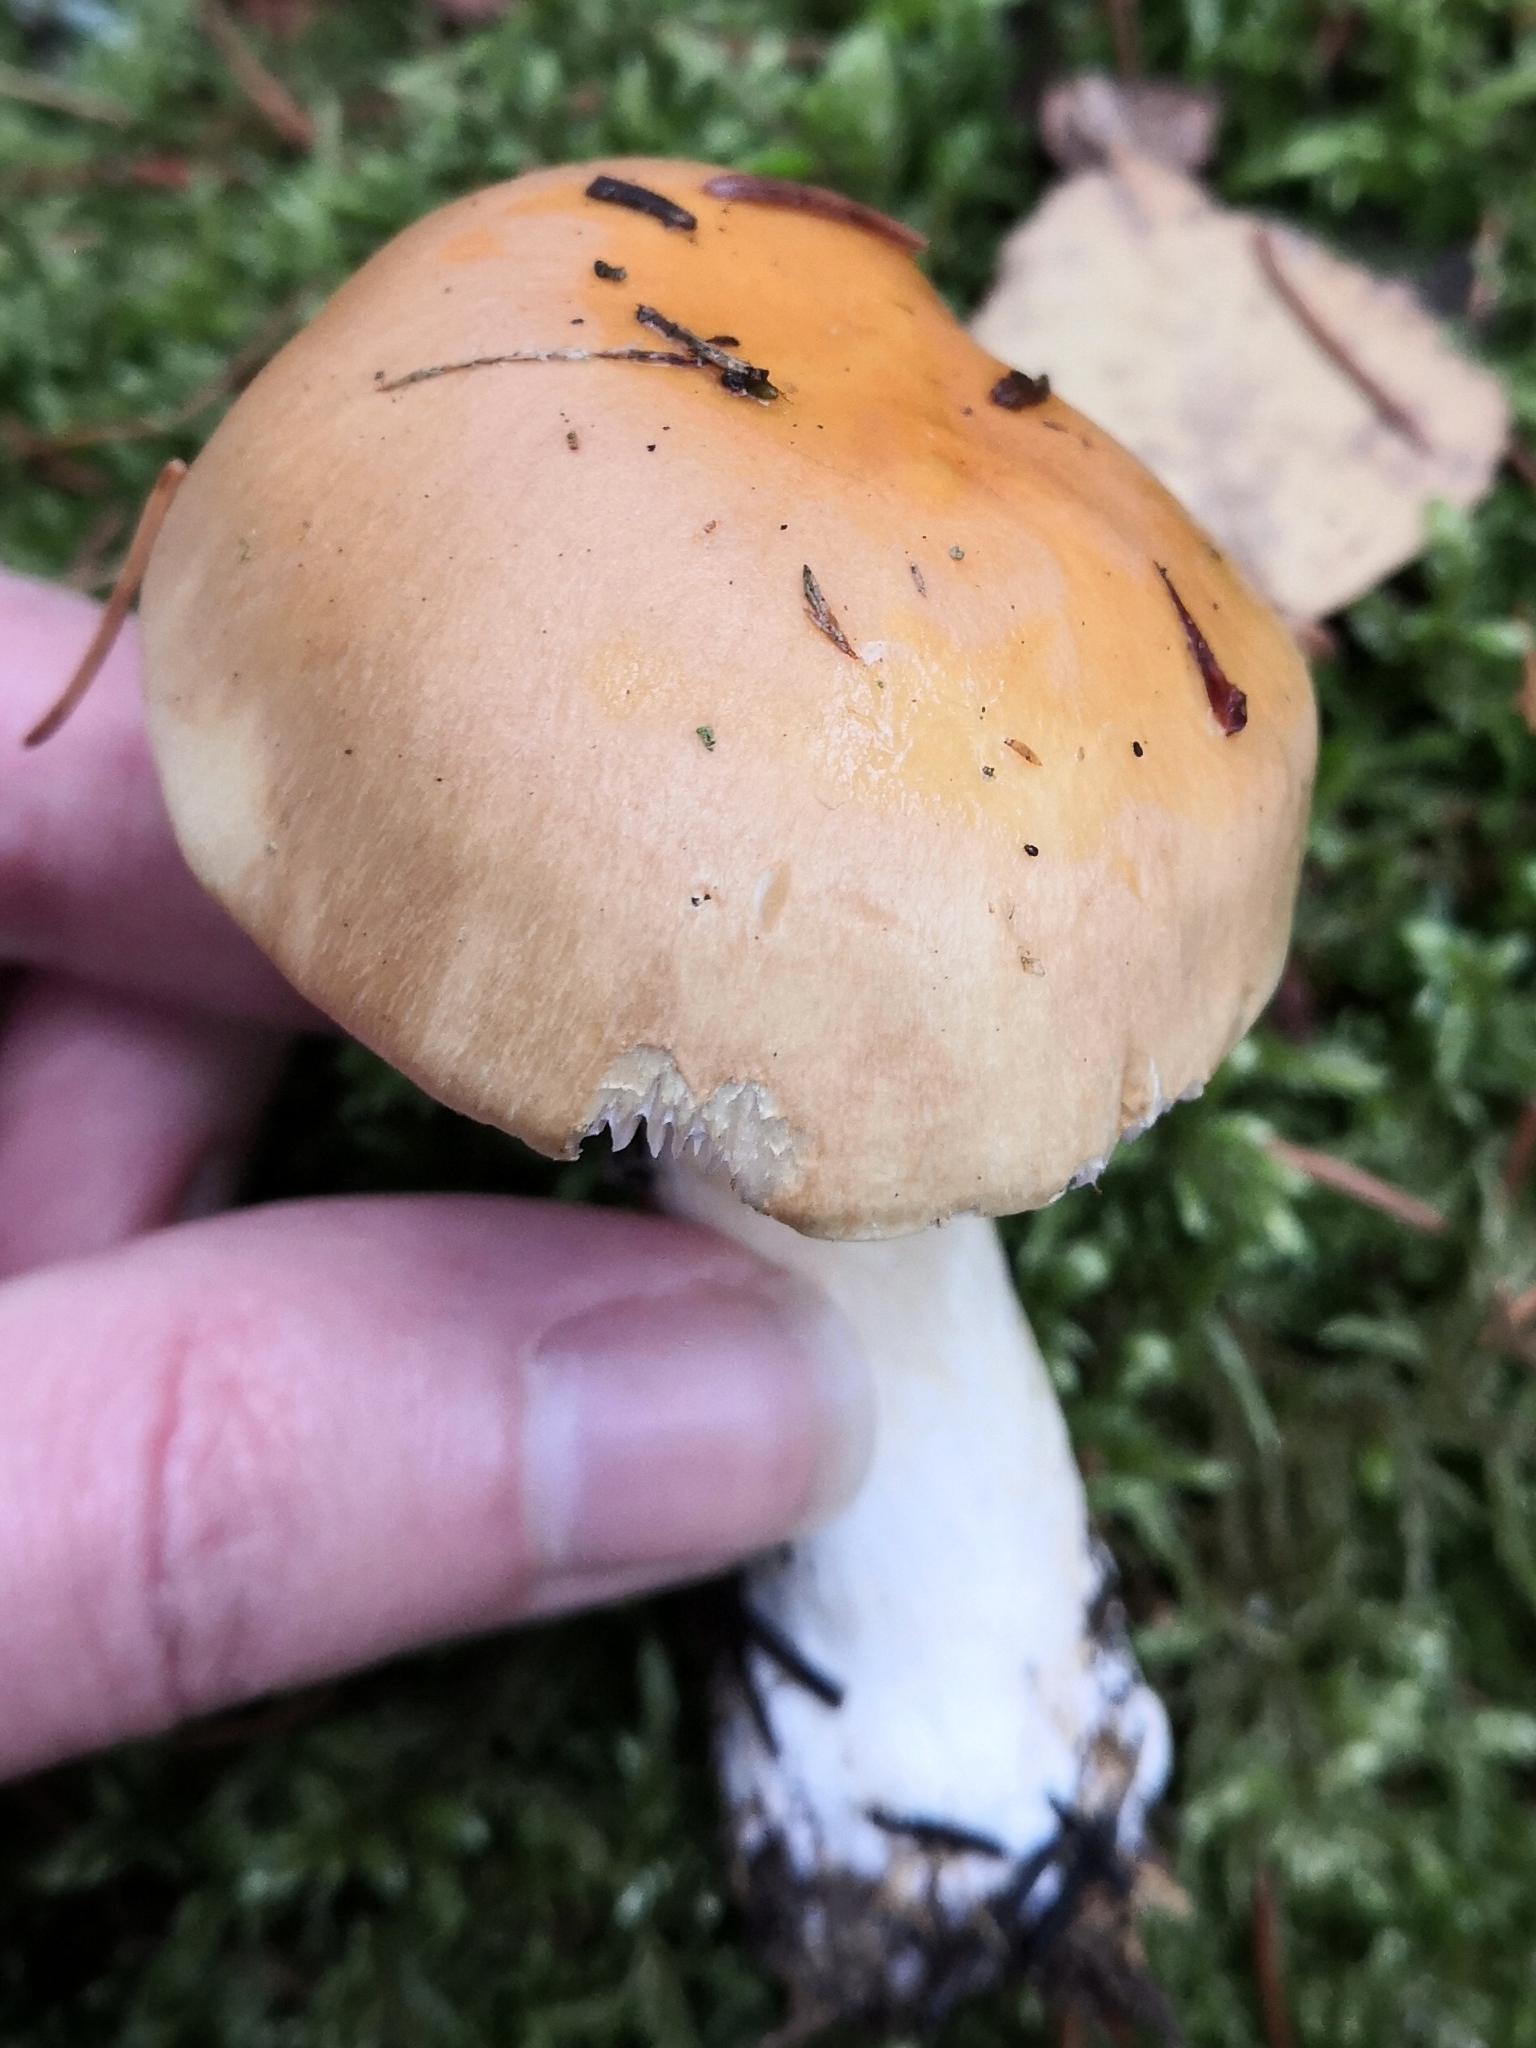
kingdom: Fungi
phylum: Basidiomycota
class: Agaricomycetes
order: Agaricales
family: Cortinariaceae
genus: Cortinarius
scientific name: Cortinarius varius
